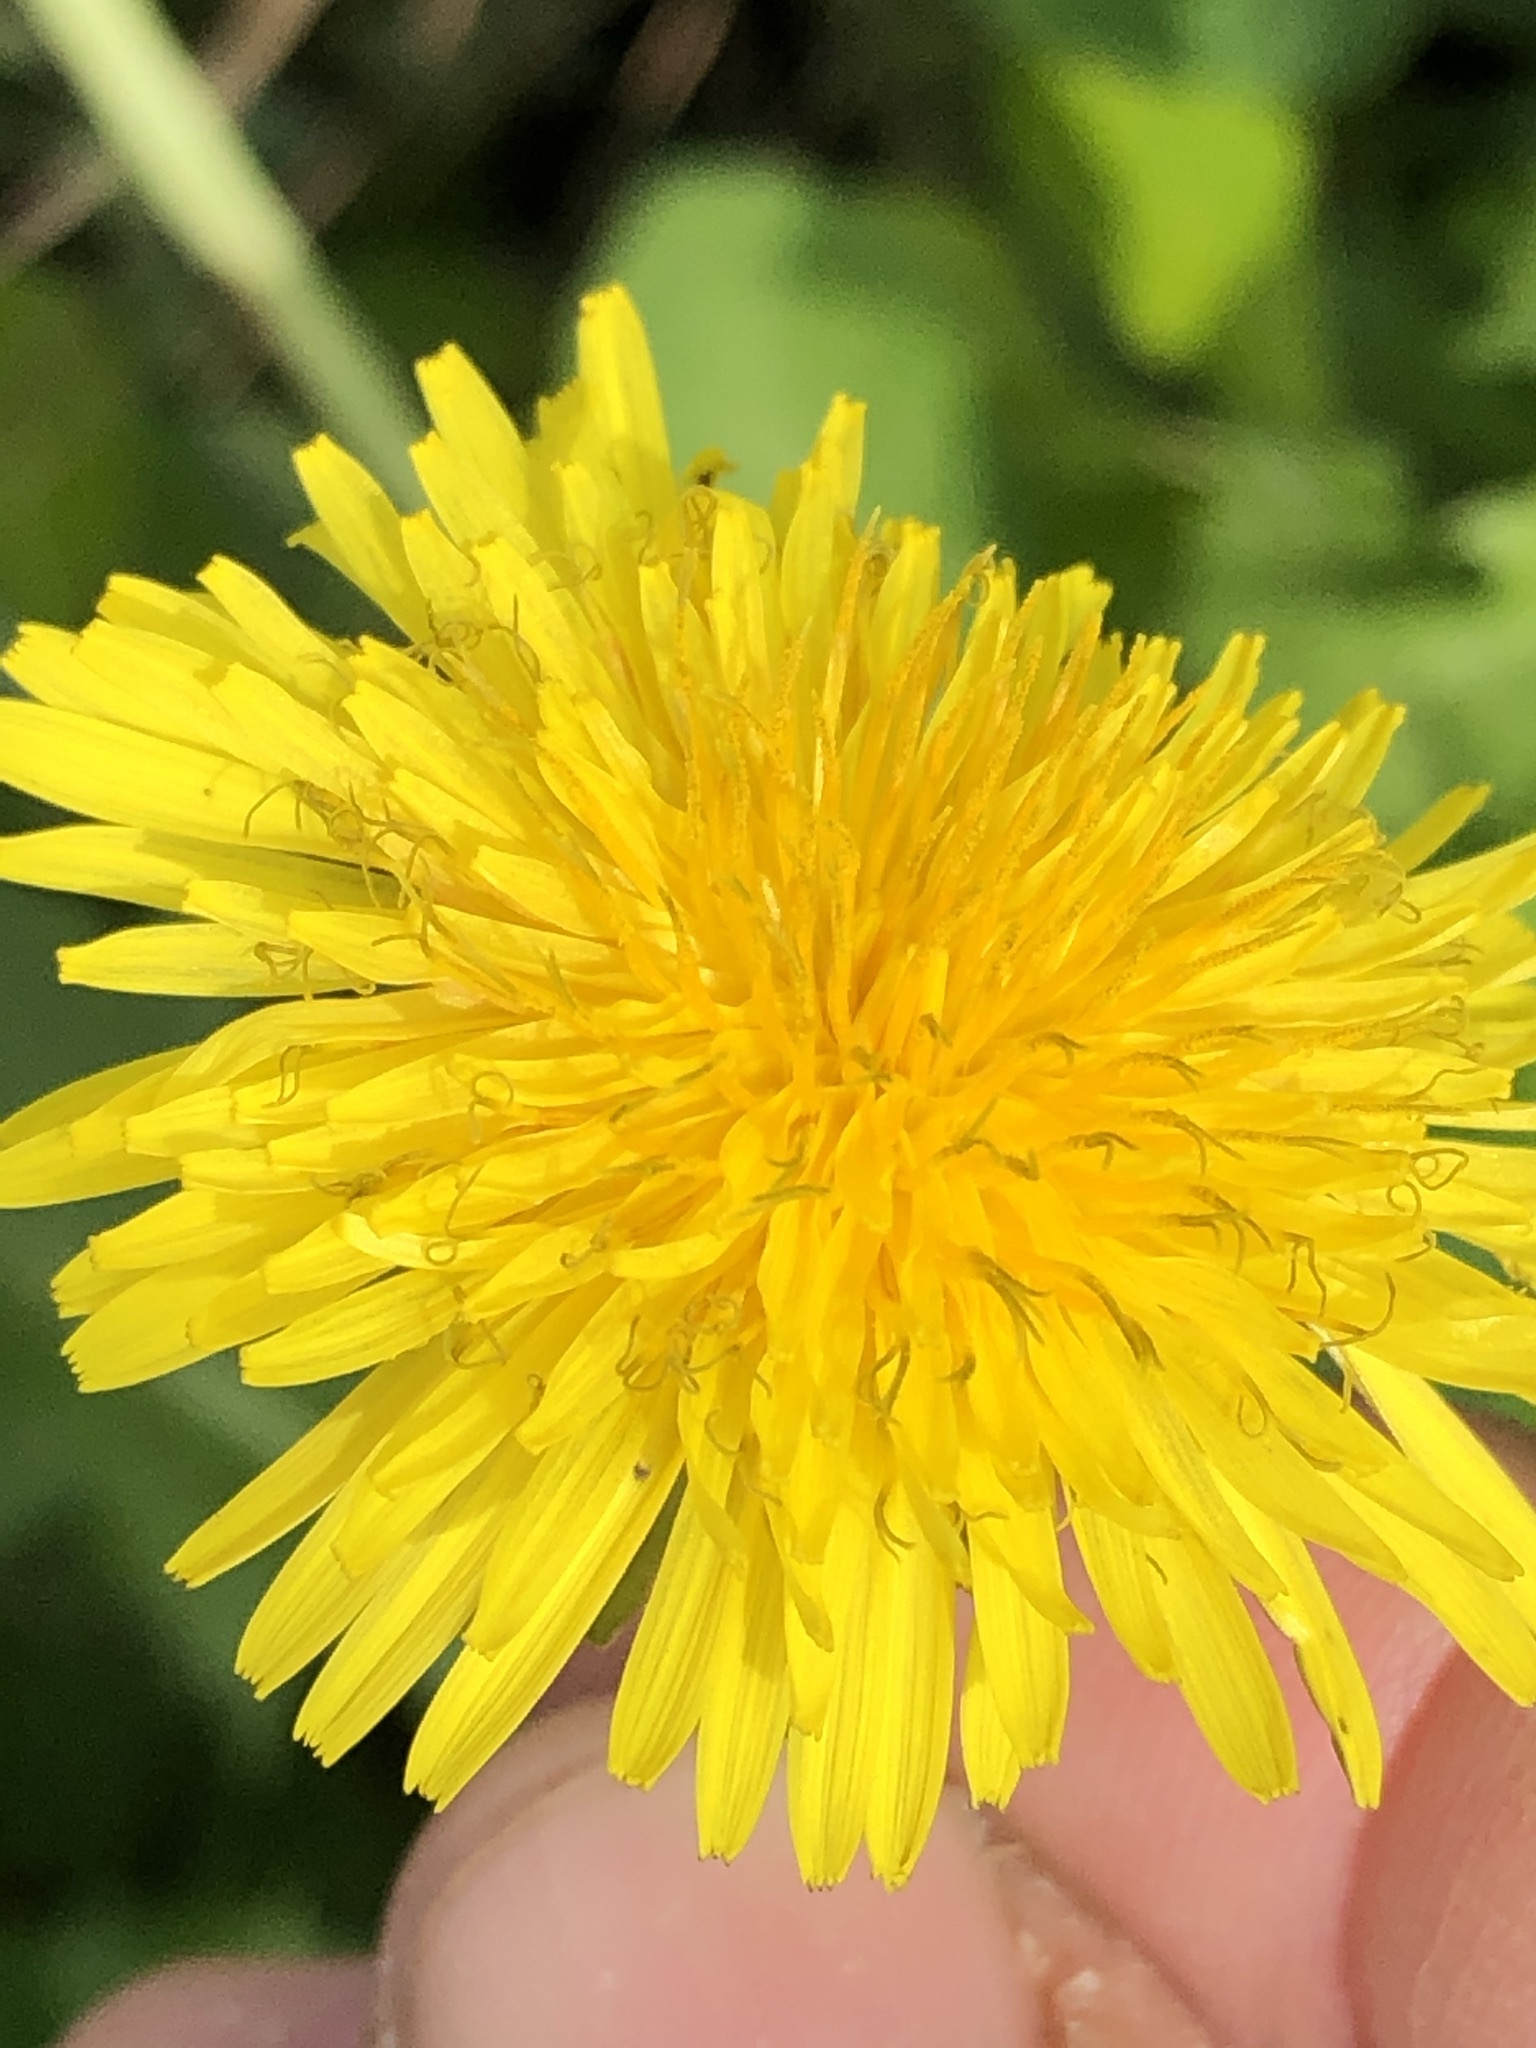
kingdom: Plantae
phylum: Tracheophyta
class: Magnoliopsida
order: Asterales
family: Asteraceae
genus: Taraxacum
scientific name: Taraxacum officinale
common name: Common dandelion
